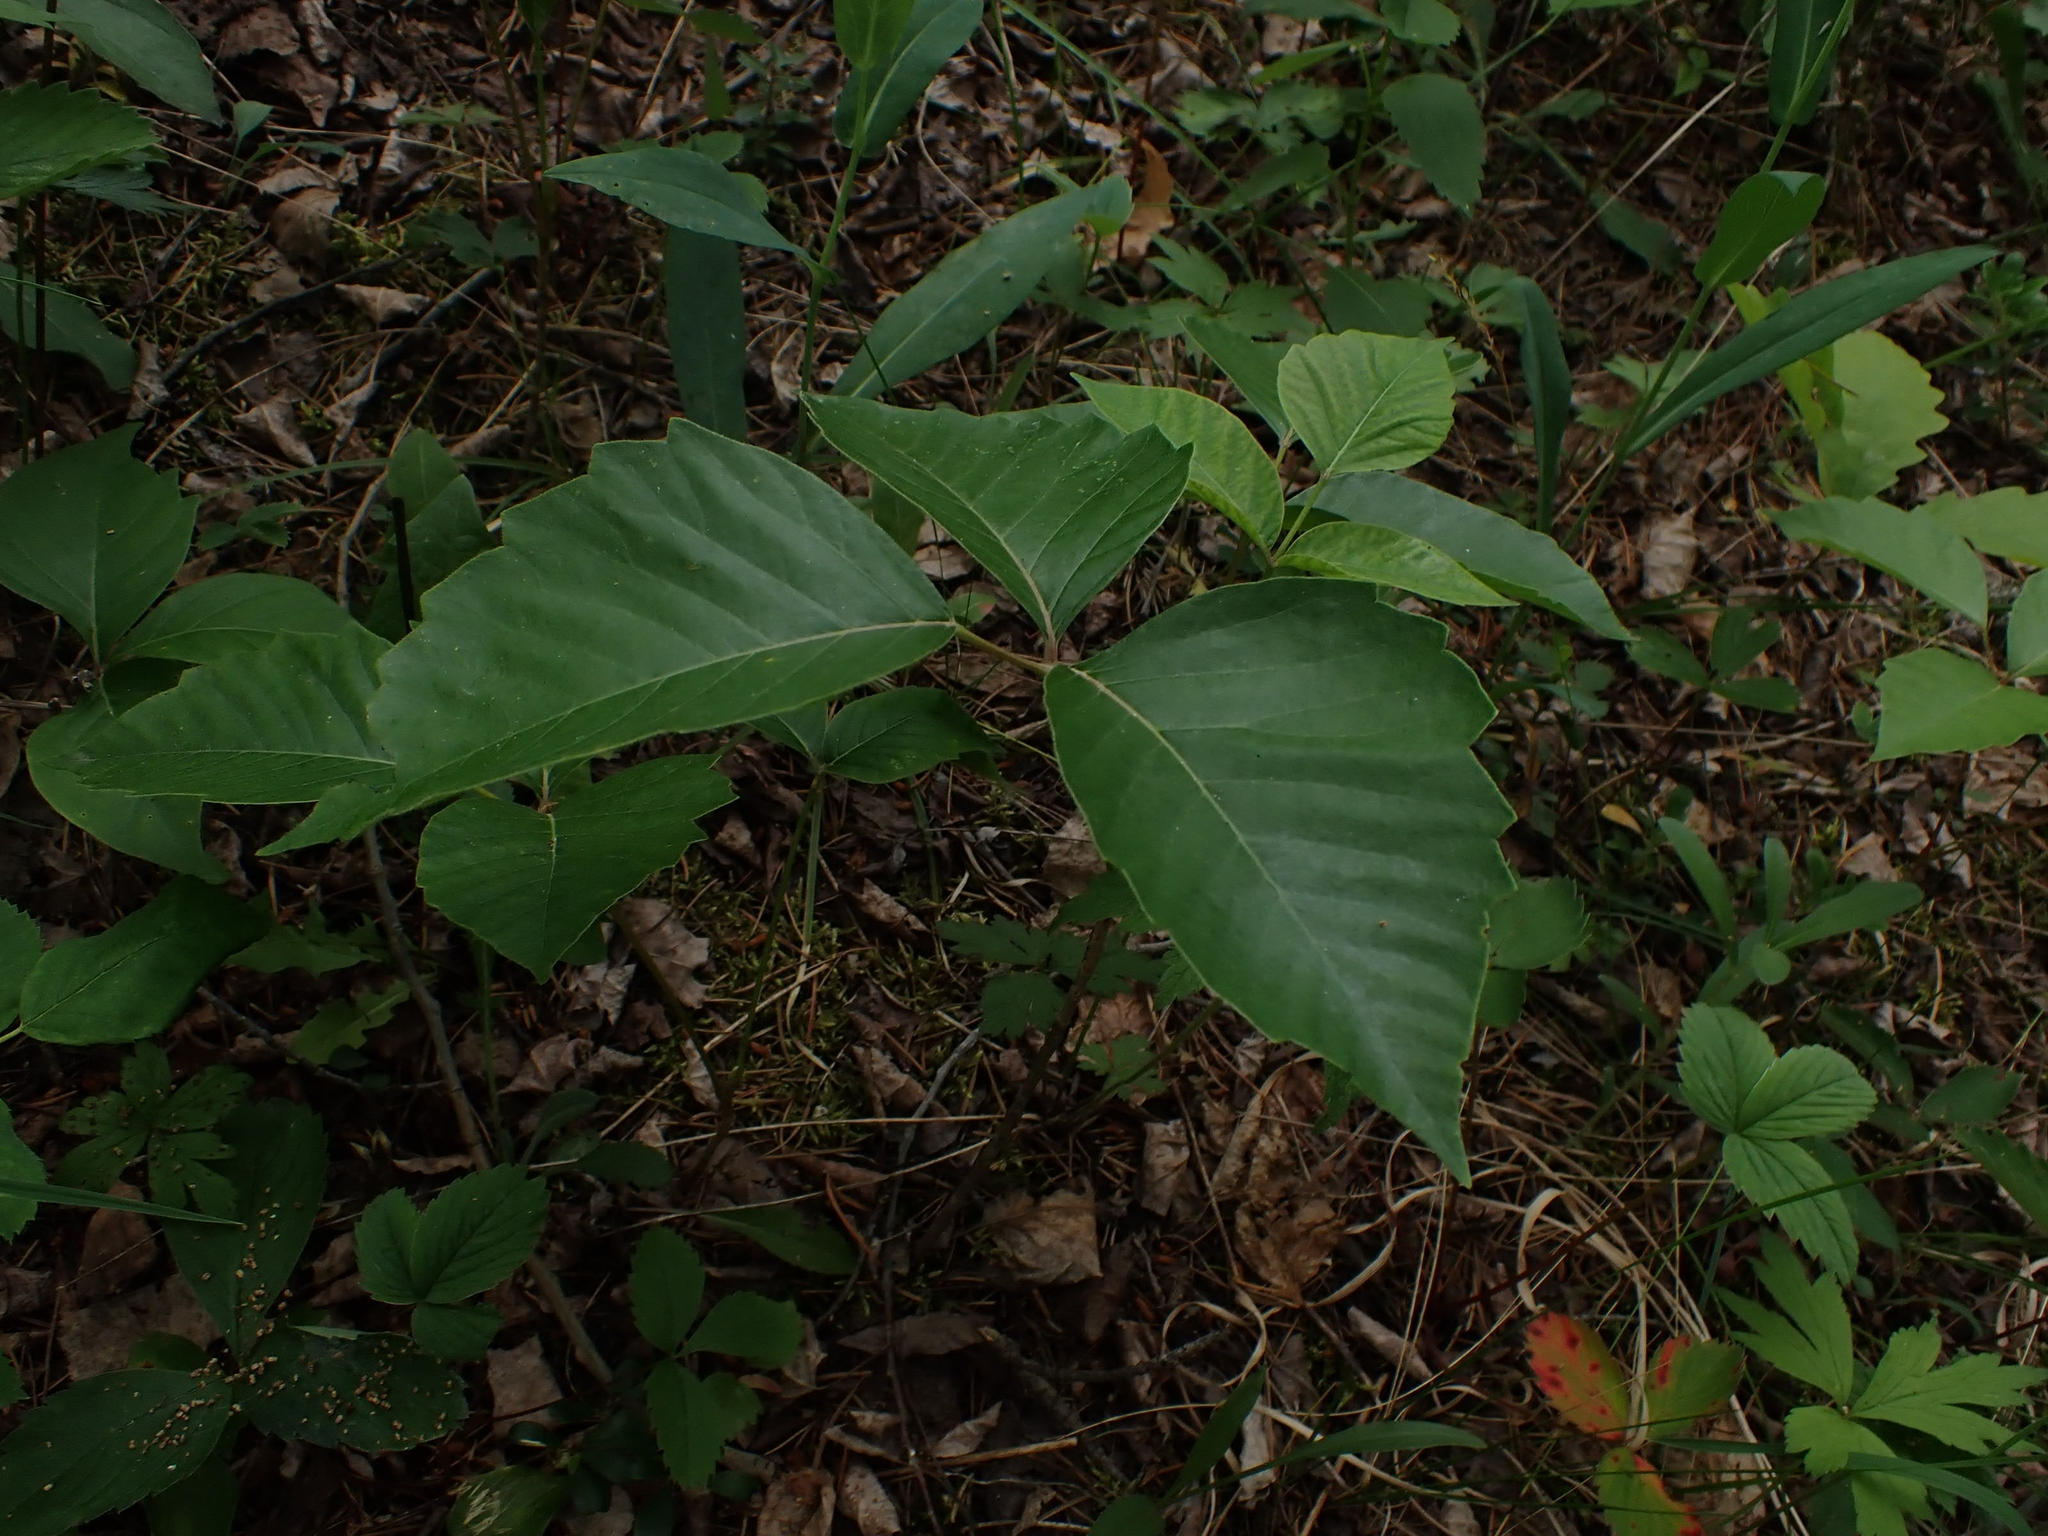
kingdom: Plantae
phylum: Tracheophyta
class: Magnoliopsida
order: Sapindales
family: Anacardiaceae
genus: Toxicodendron
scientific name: Toxicodendron rydbergii
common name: Rydberg's poison-ivy
